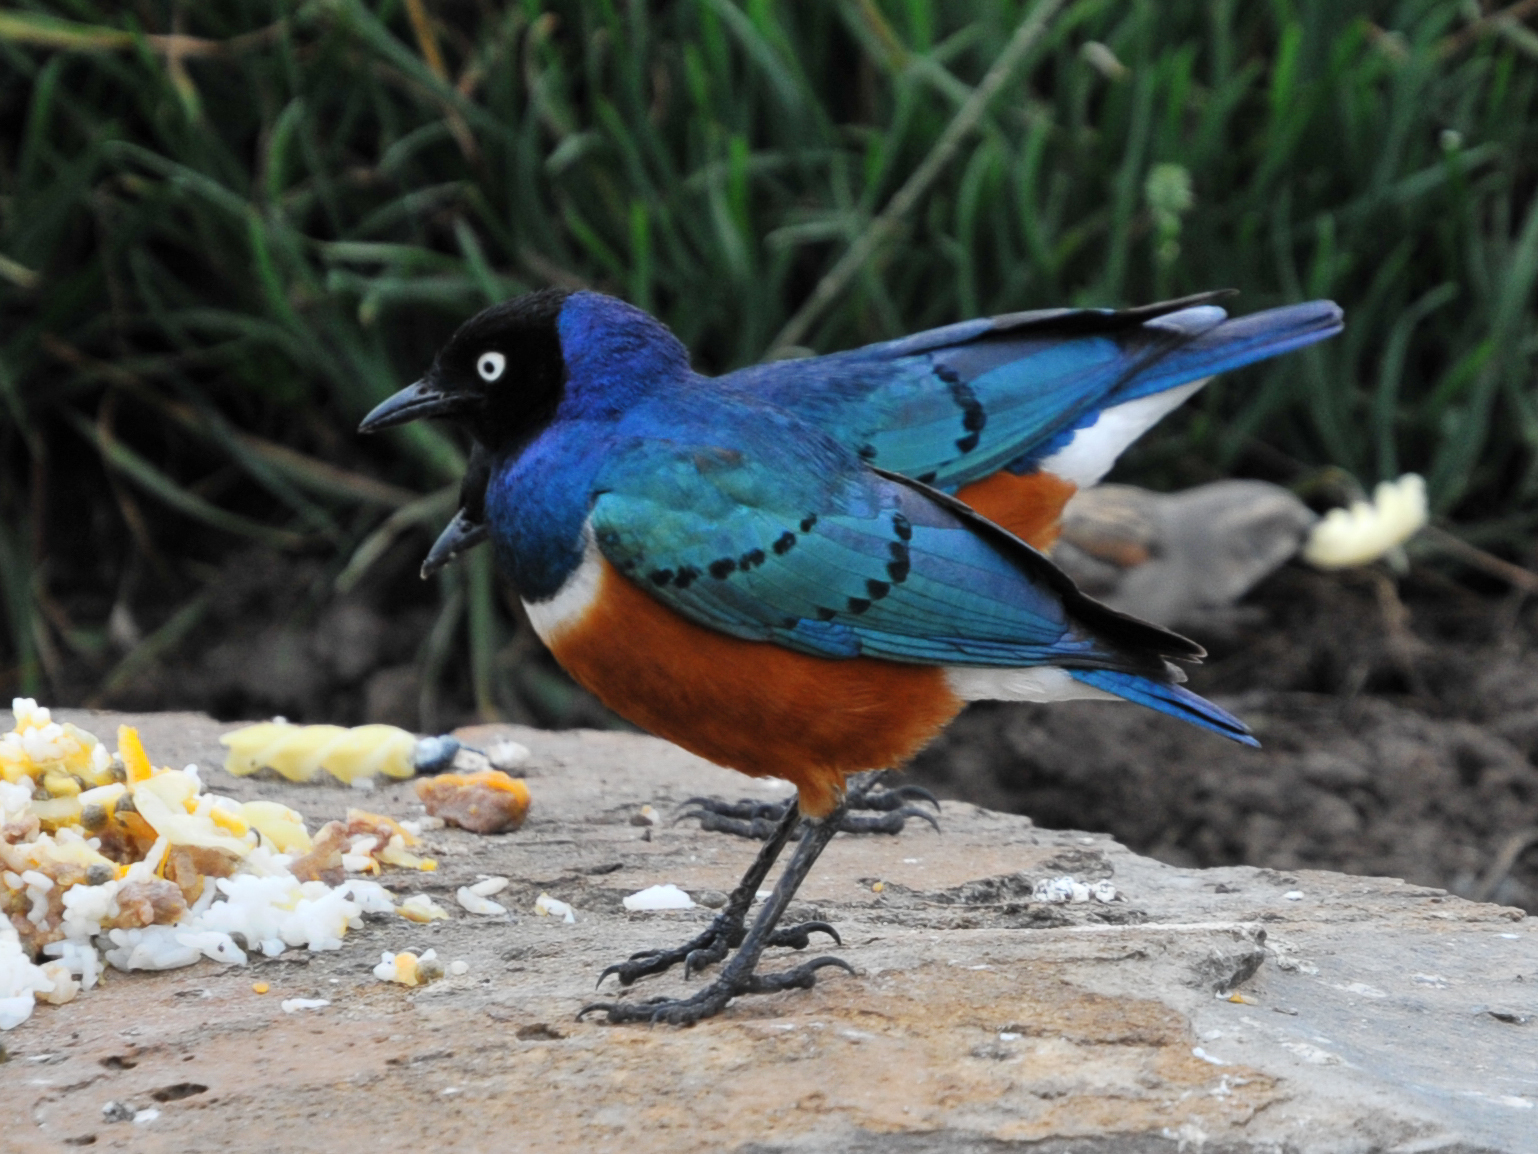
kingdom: Animalia
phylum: Chordata
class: Aves
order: Passeriformes
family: Sturnidae
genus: Lamprotornis
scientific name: Lamprotornis superbus
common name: Superb starling
